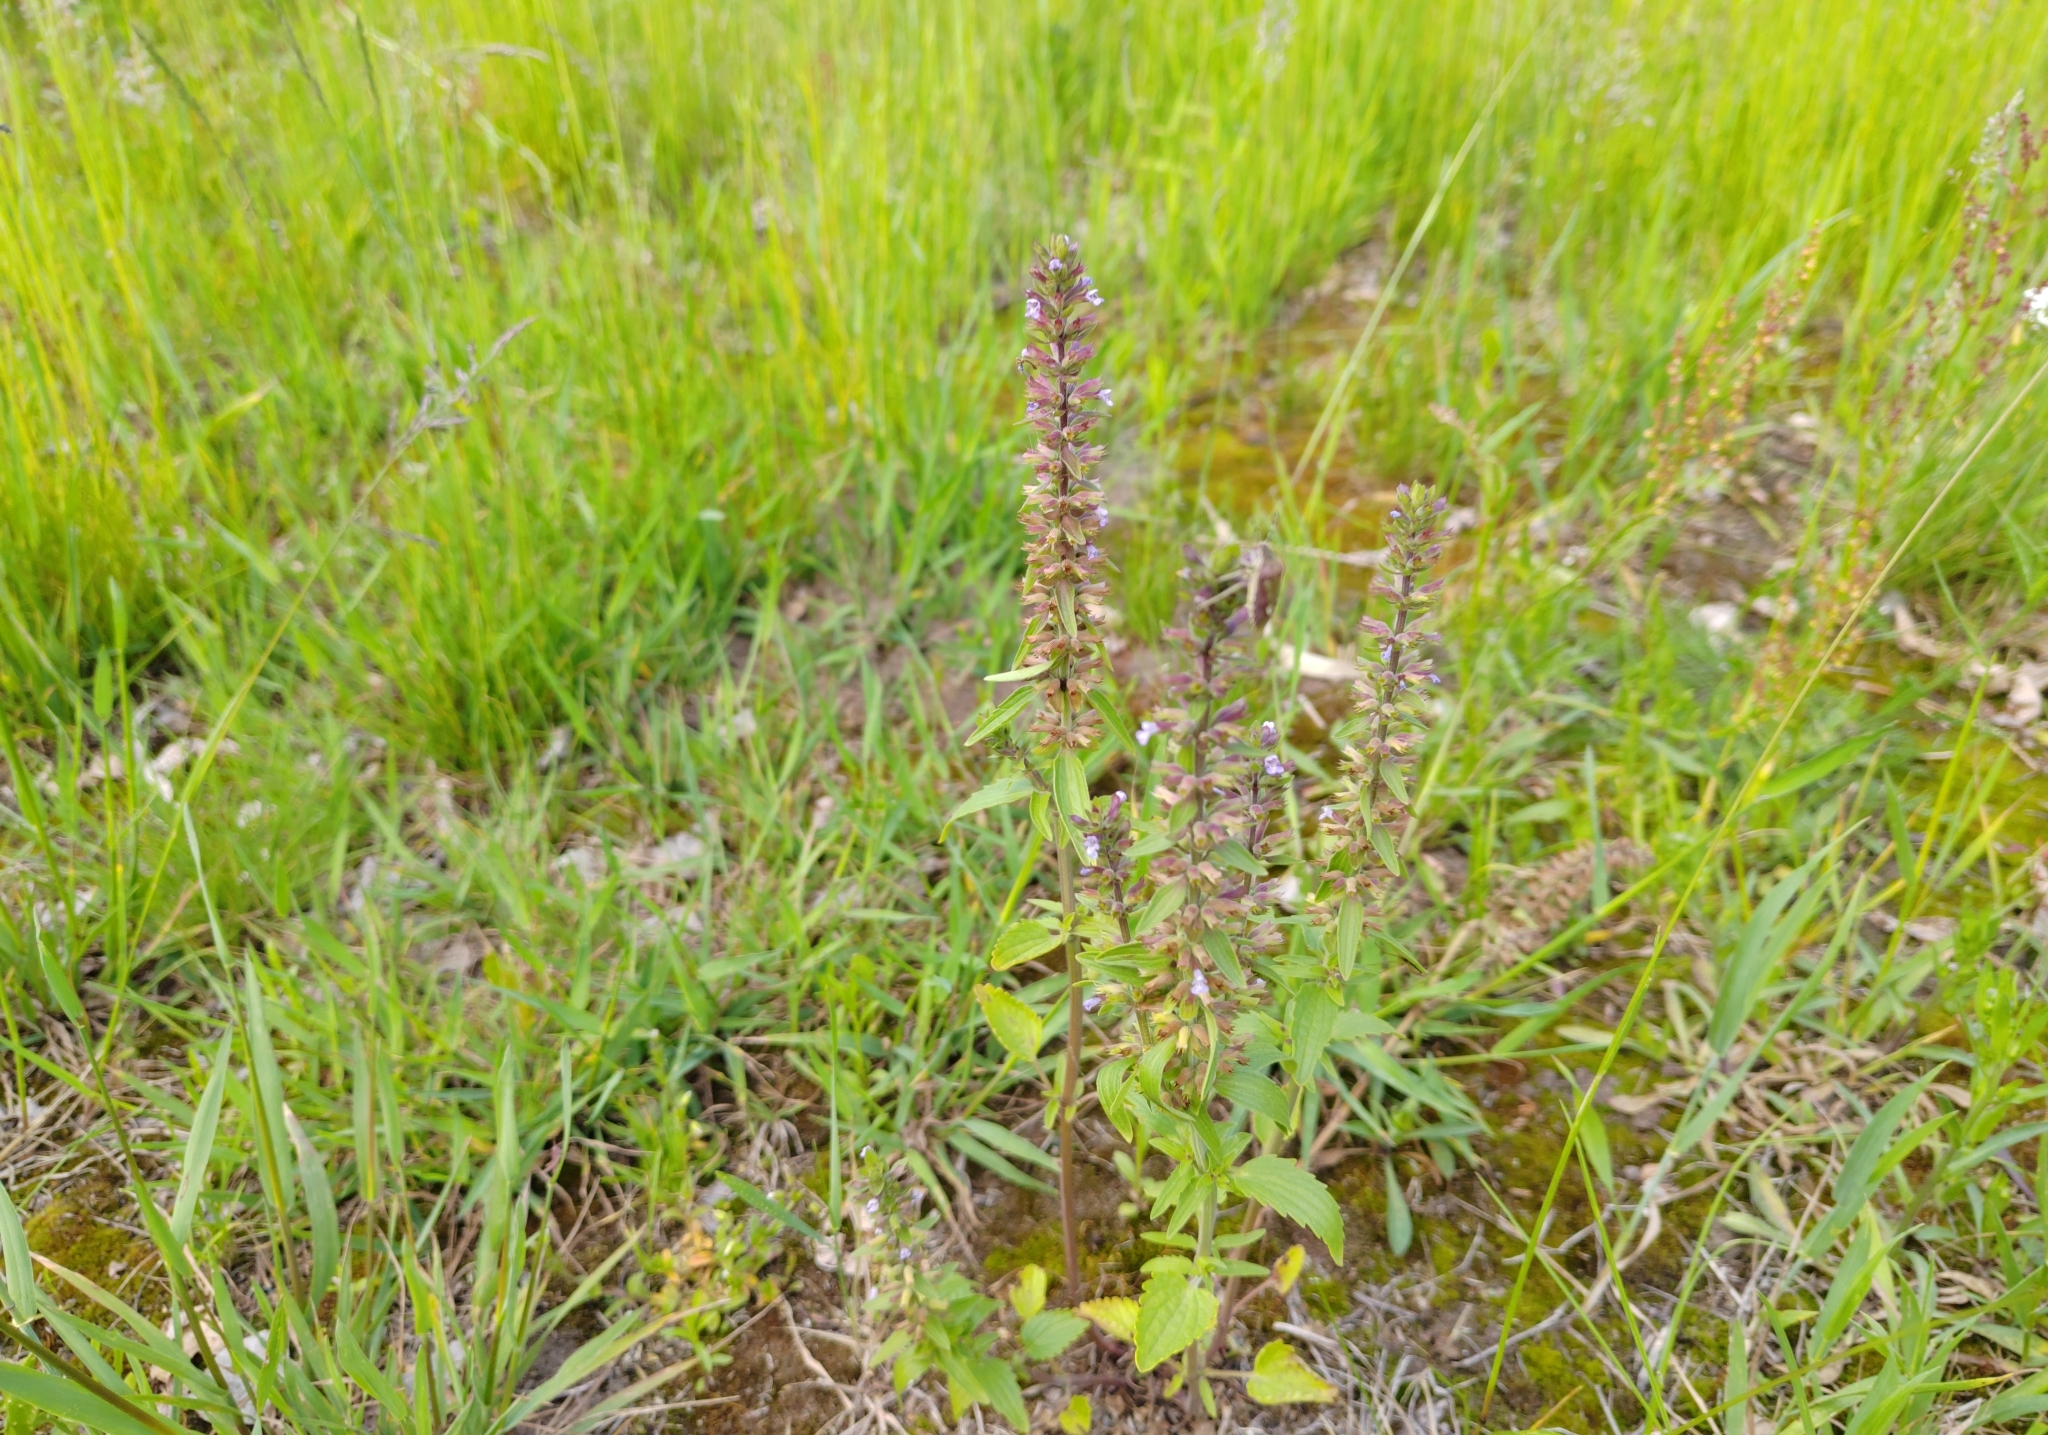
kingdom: Plantae
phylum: Tracheophyta
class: Magnoliopsida
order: Lamiales
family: Lamiaceae
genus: Dracocephalum
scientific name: Dracocephalum thymiflorum
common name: Thymeleaf dragonhead
